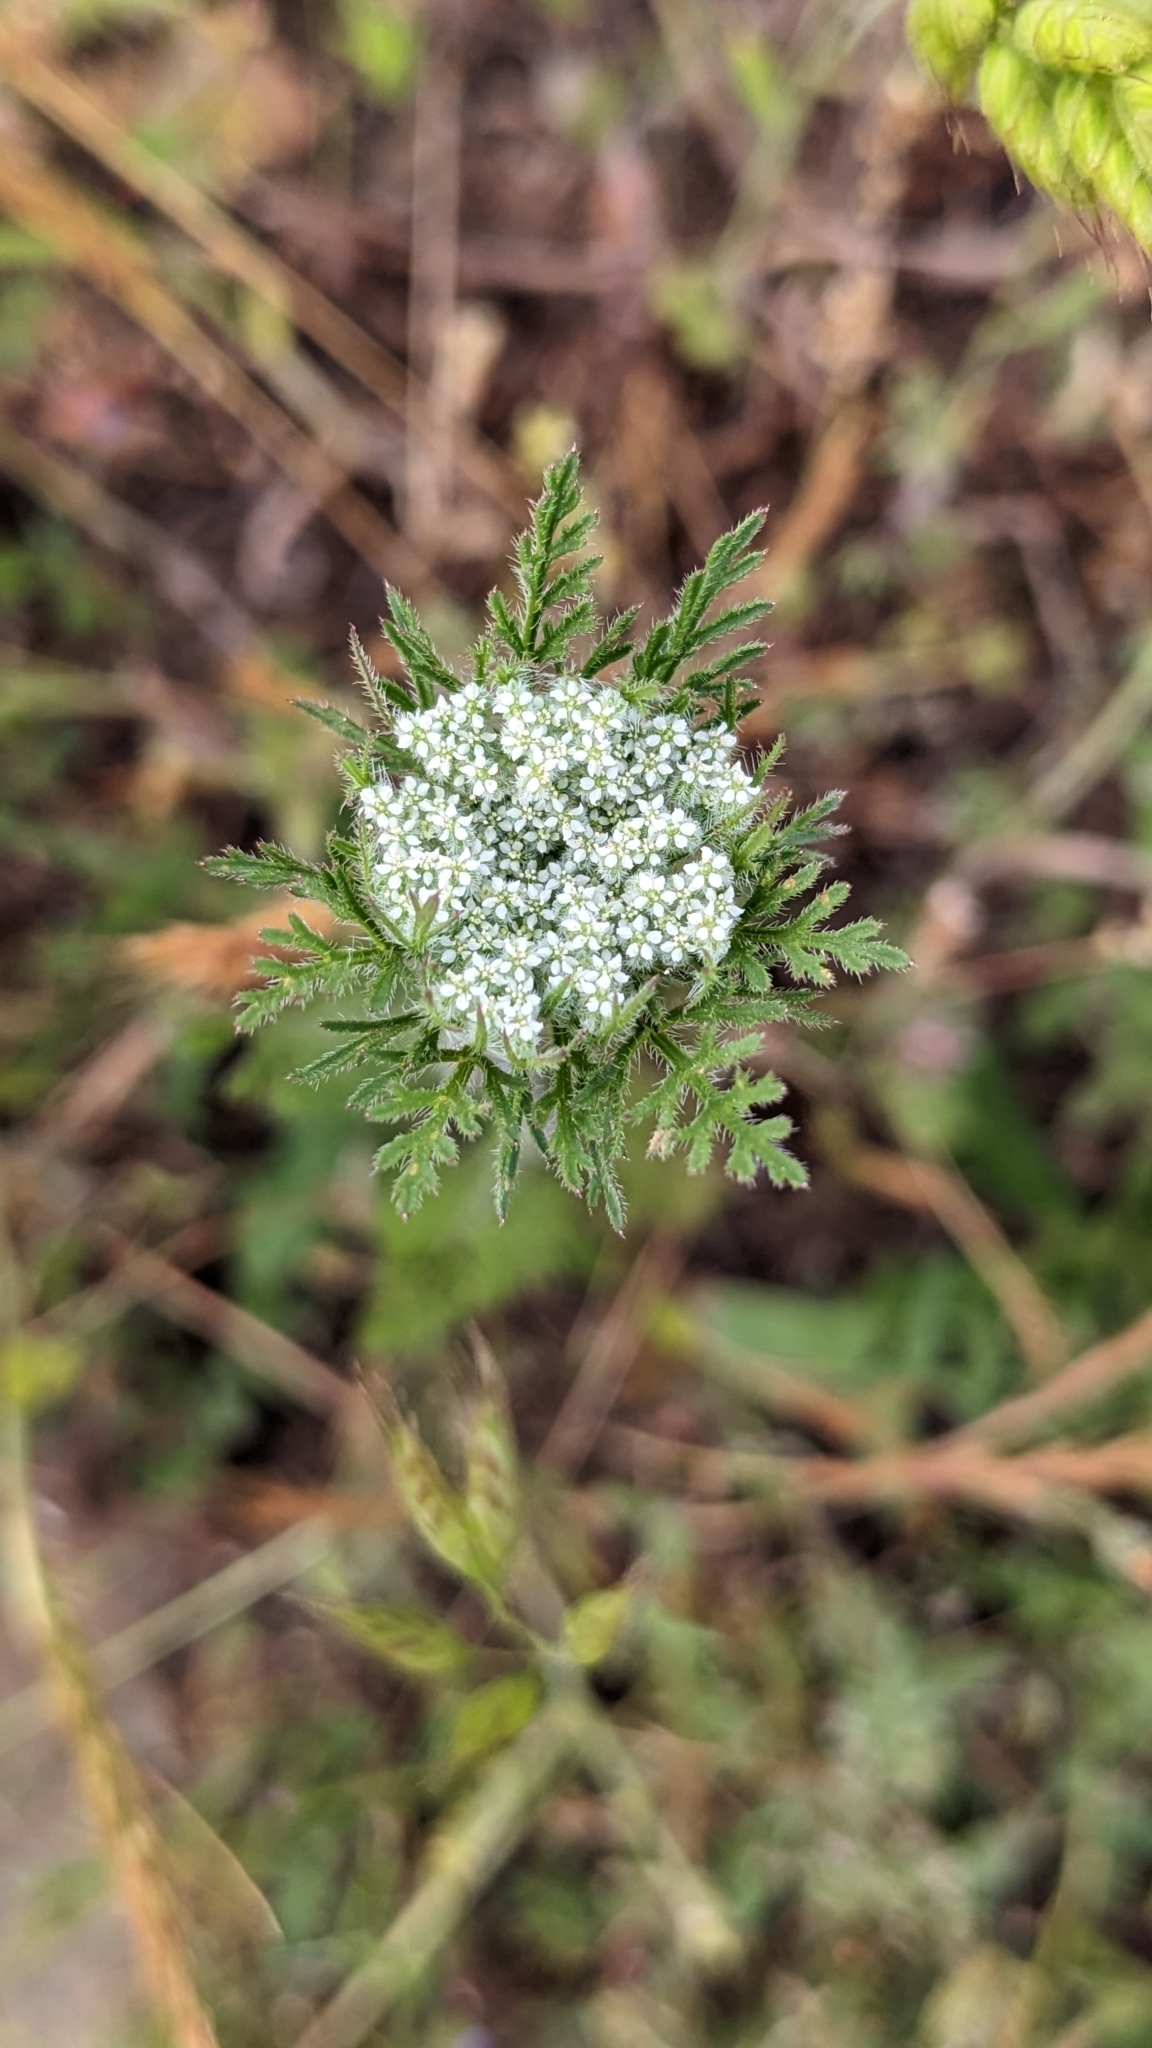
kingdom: Plantae
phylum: Tracheophyta
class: Magnoliopsida
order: Apiales
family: Apiaceae
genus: Daucus
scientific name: Daucus pusillus
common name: Southwest wild carrot
